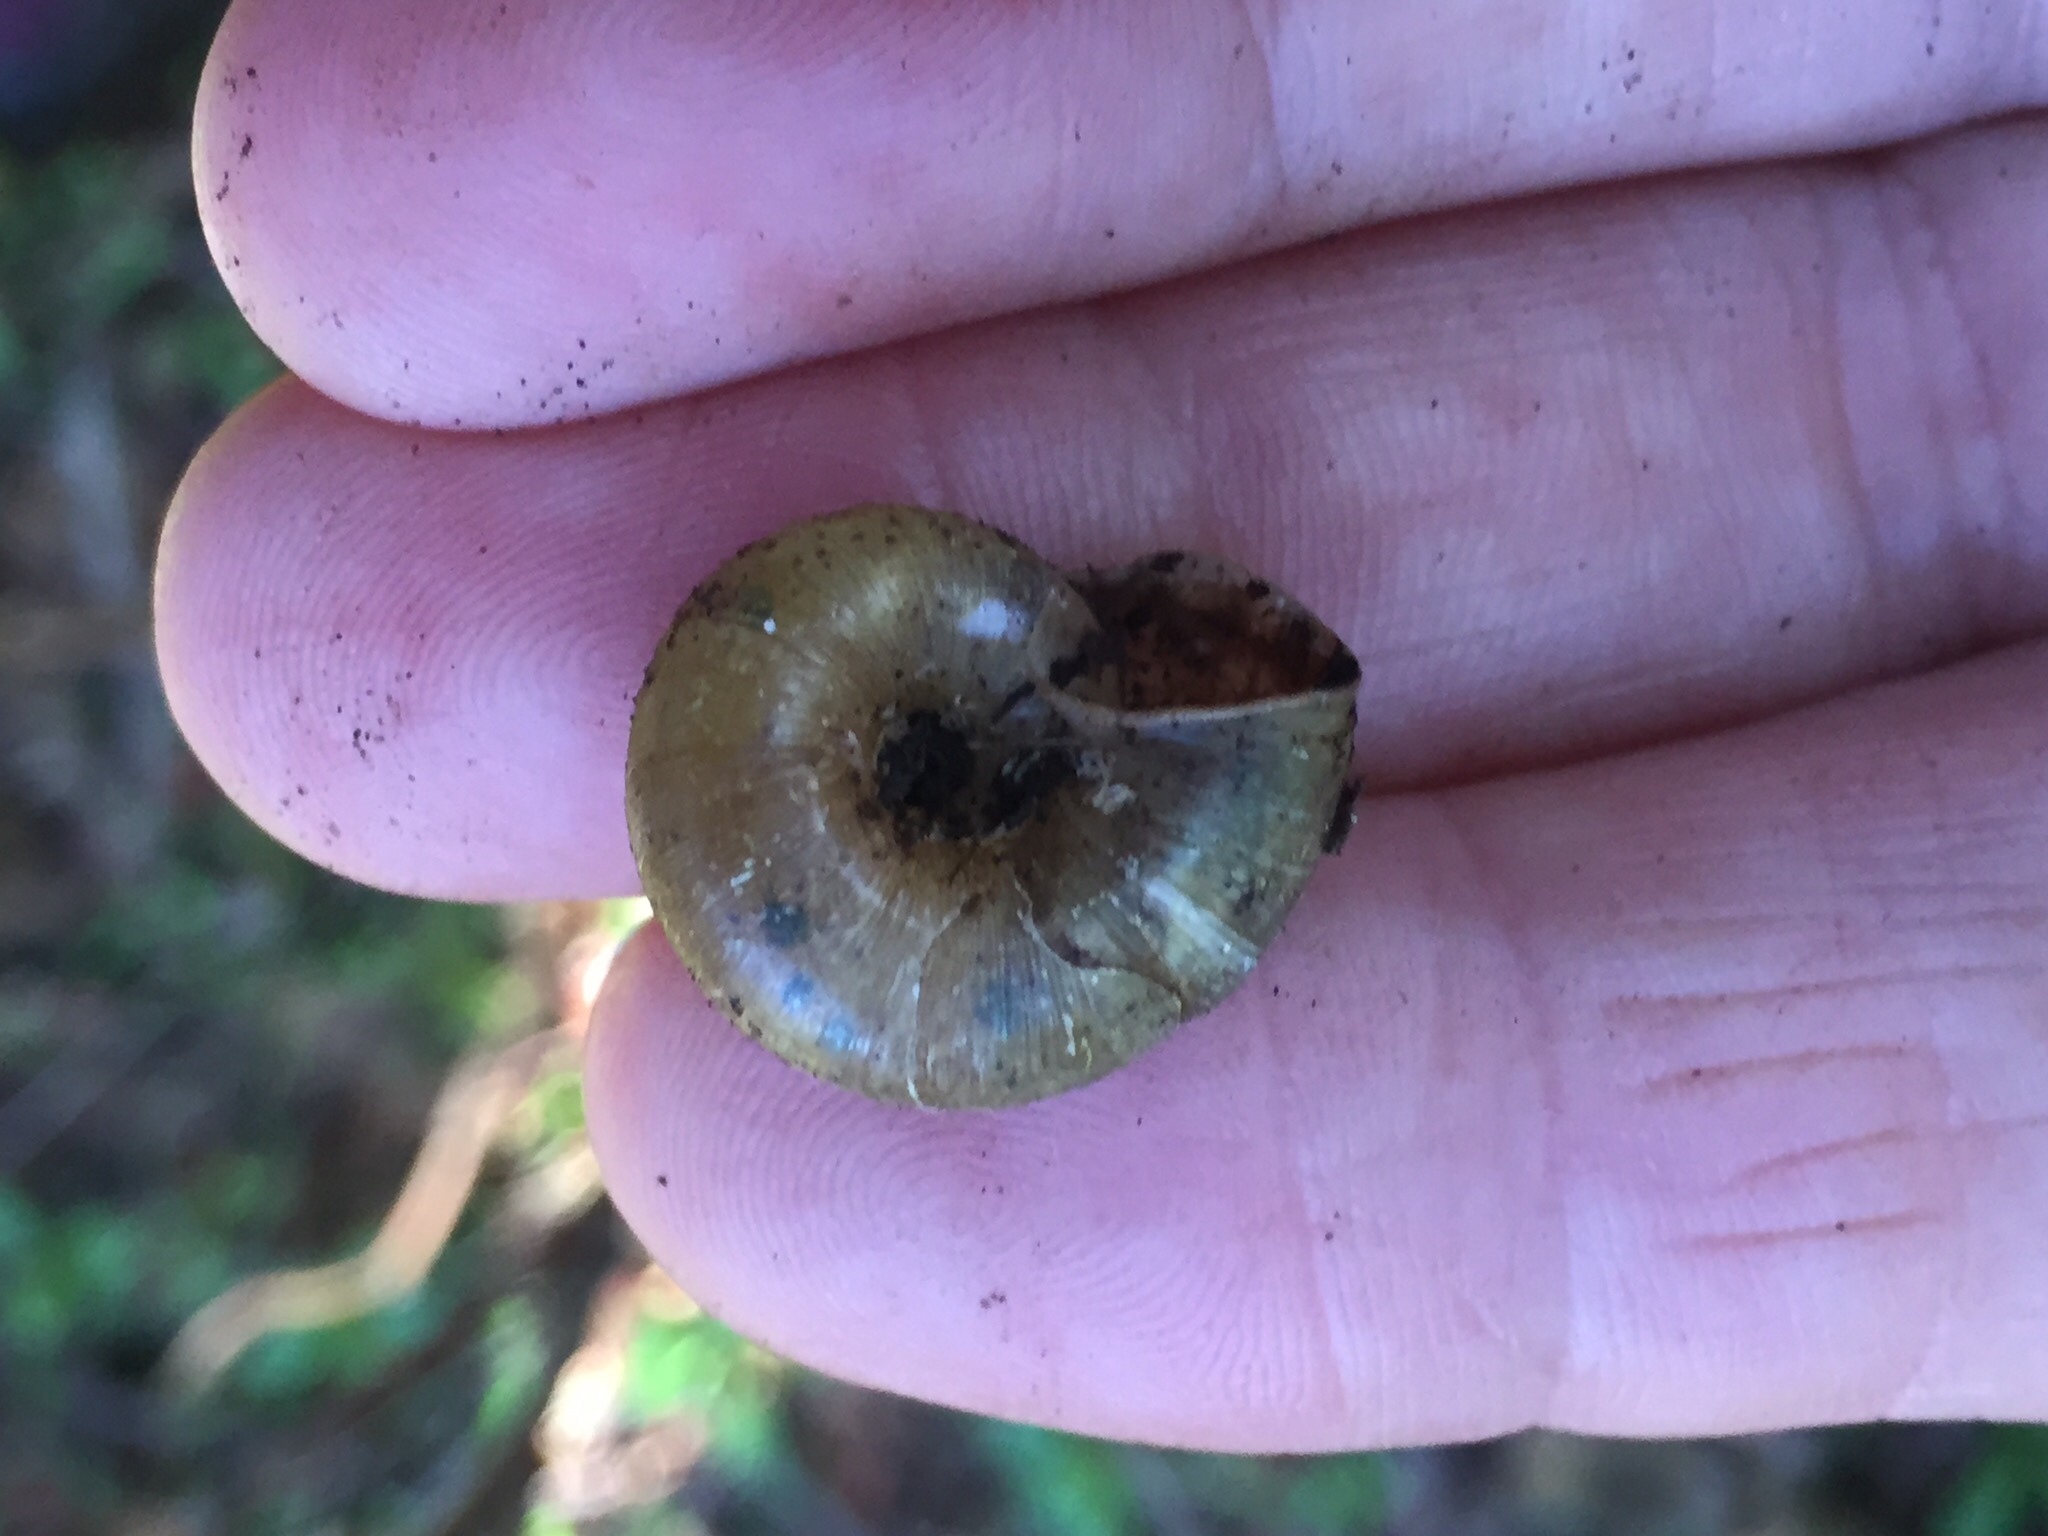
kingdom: Animalia
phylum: Mollusca
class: Gastropoda
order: Stylommatophora
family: Haplotrematidae
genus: Haplotrema
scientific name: Haplotrema minimum
